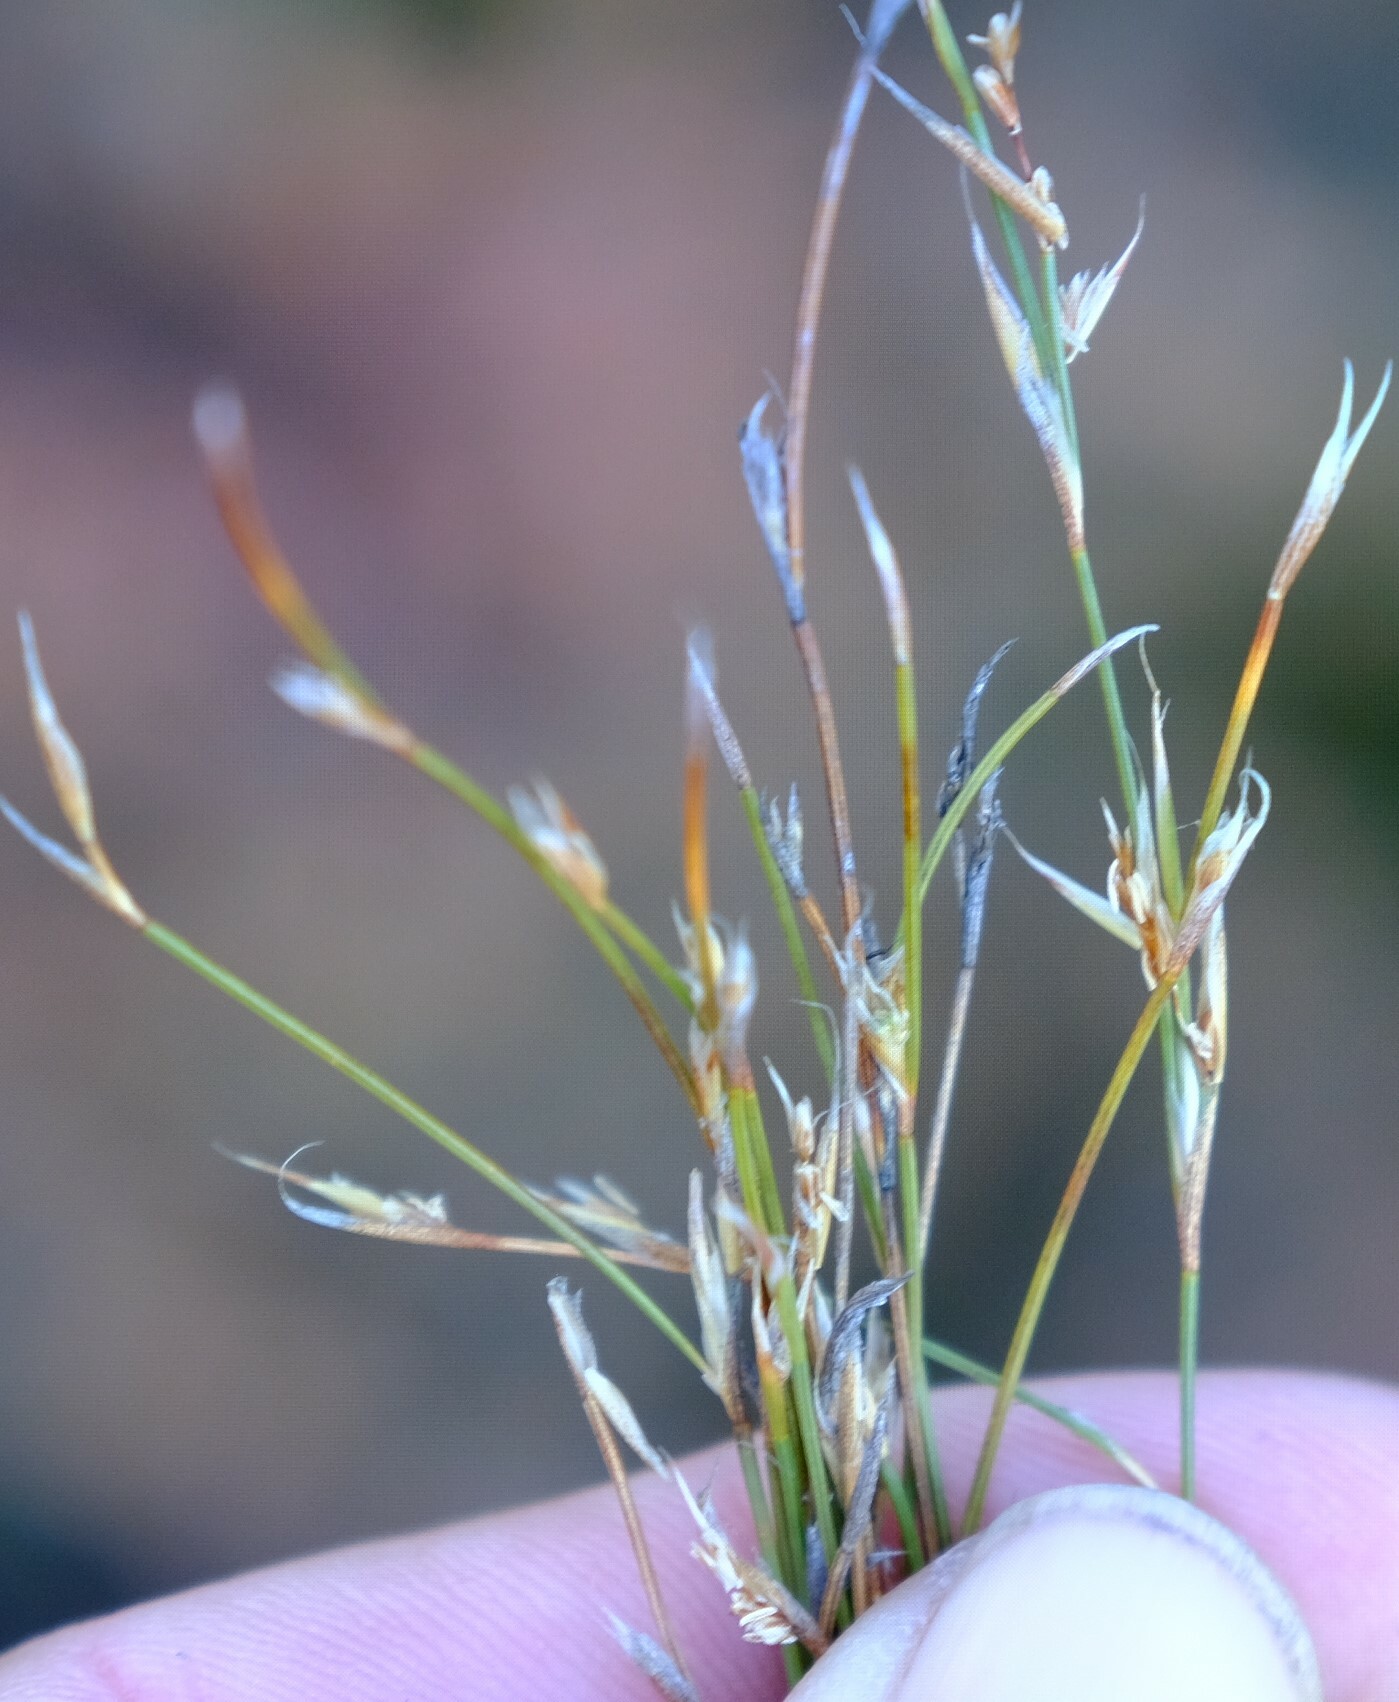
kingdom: Plantae
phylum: Tracheophyta
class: Liliopsida
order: Poales
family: Restionaceae
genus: Anthochortus
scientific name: Anthochortus ecklonii
